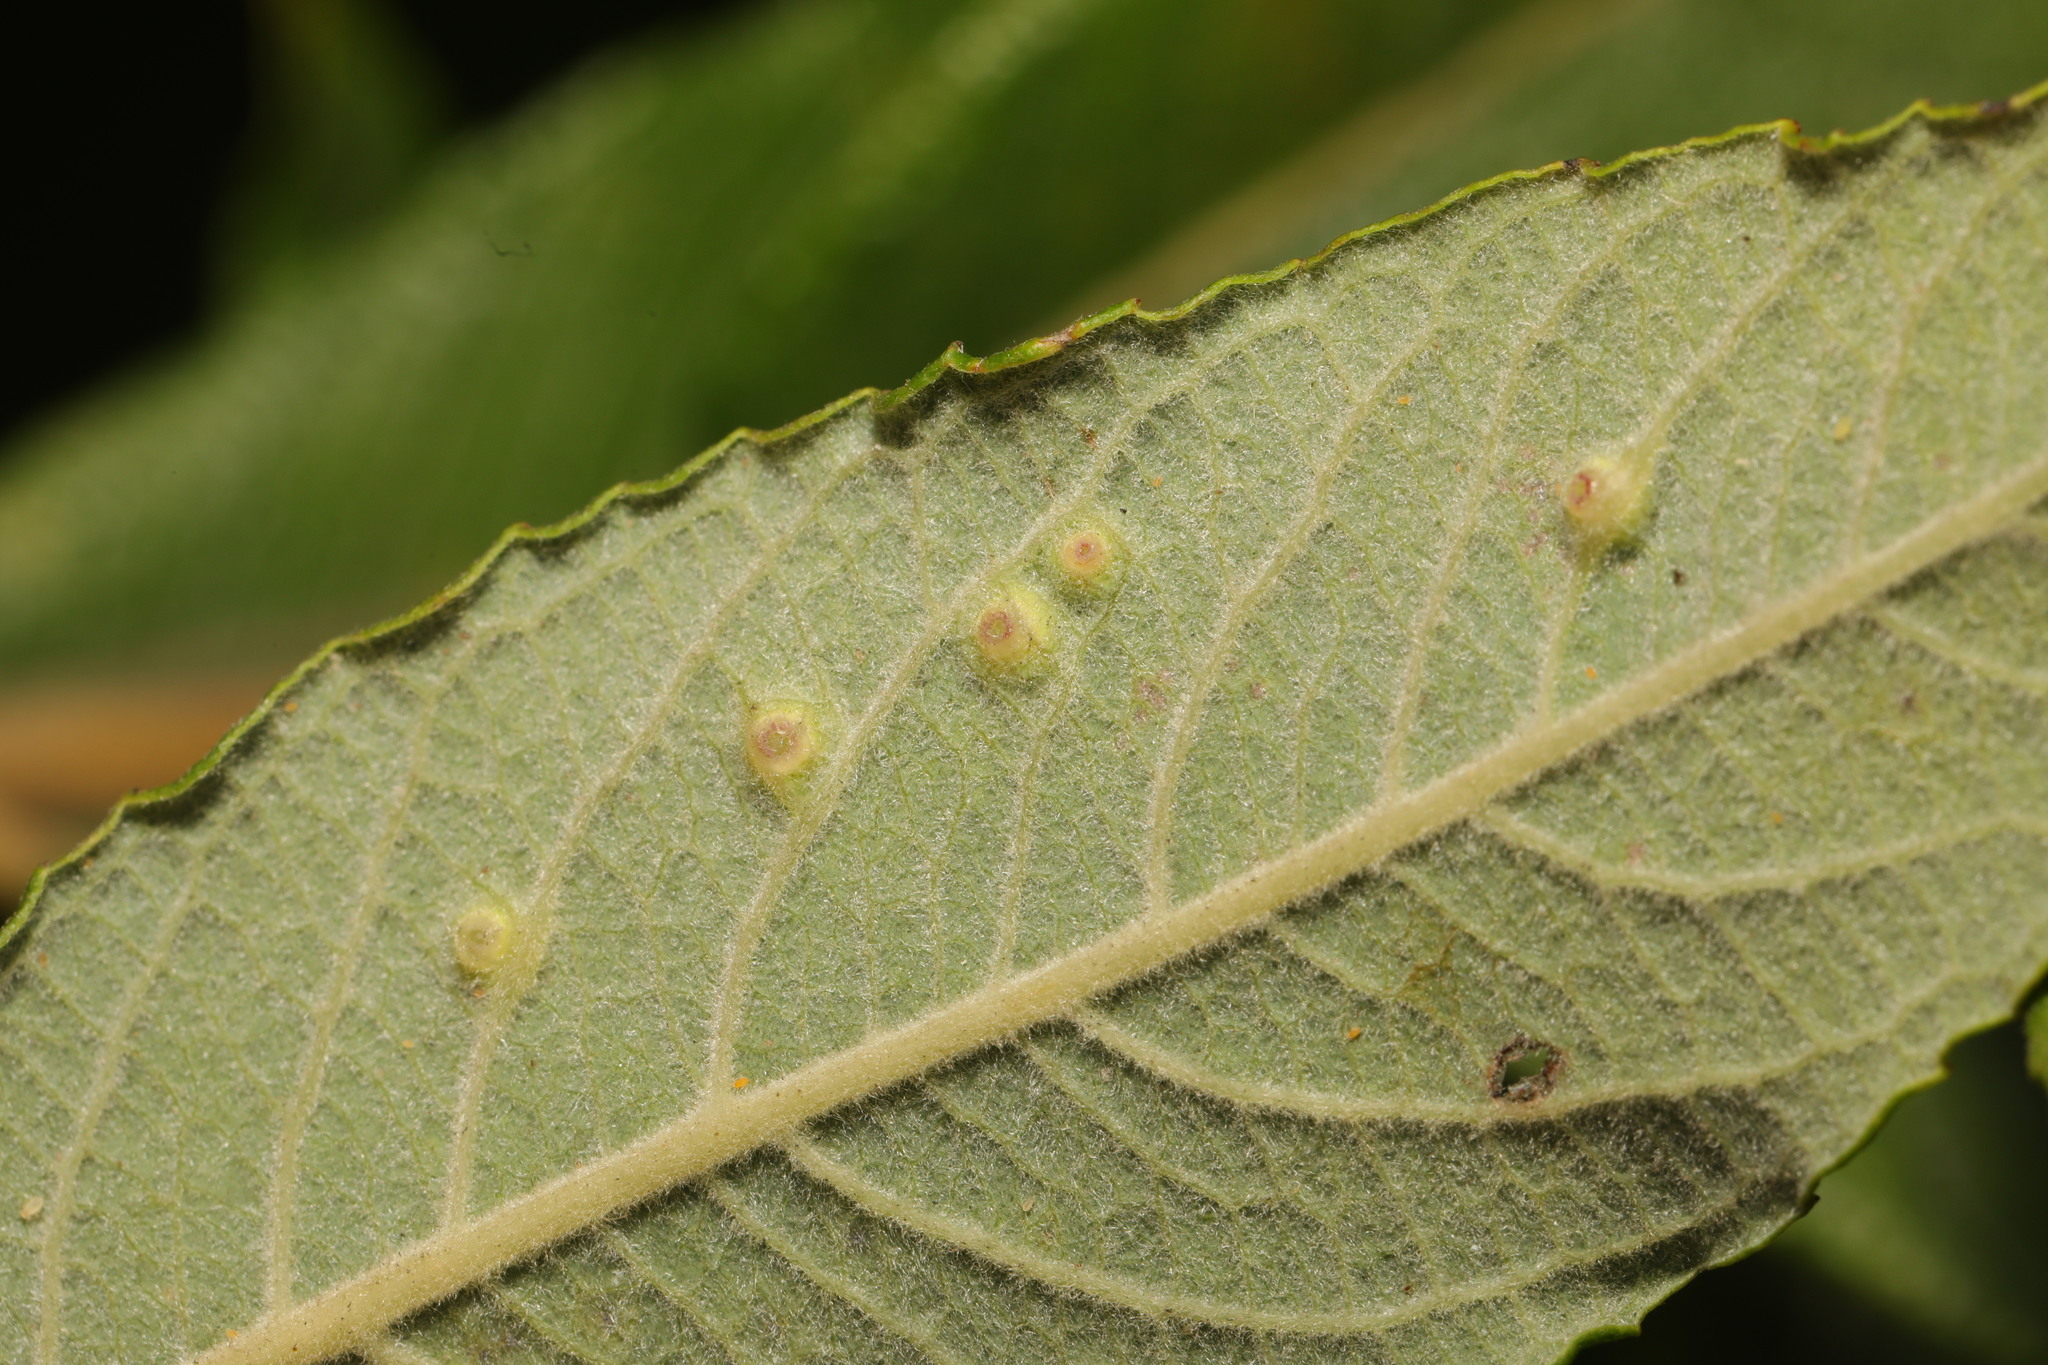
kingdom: Animalia
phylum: Arthropoda
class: Insecta
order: Diptera
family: Cecidomyiidae
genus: Iteomyia
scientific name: Iteomyia major
